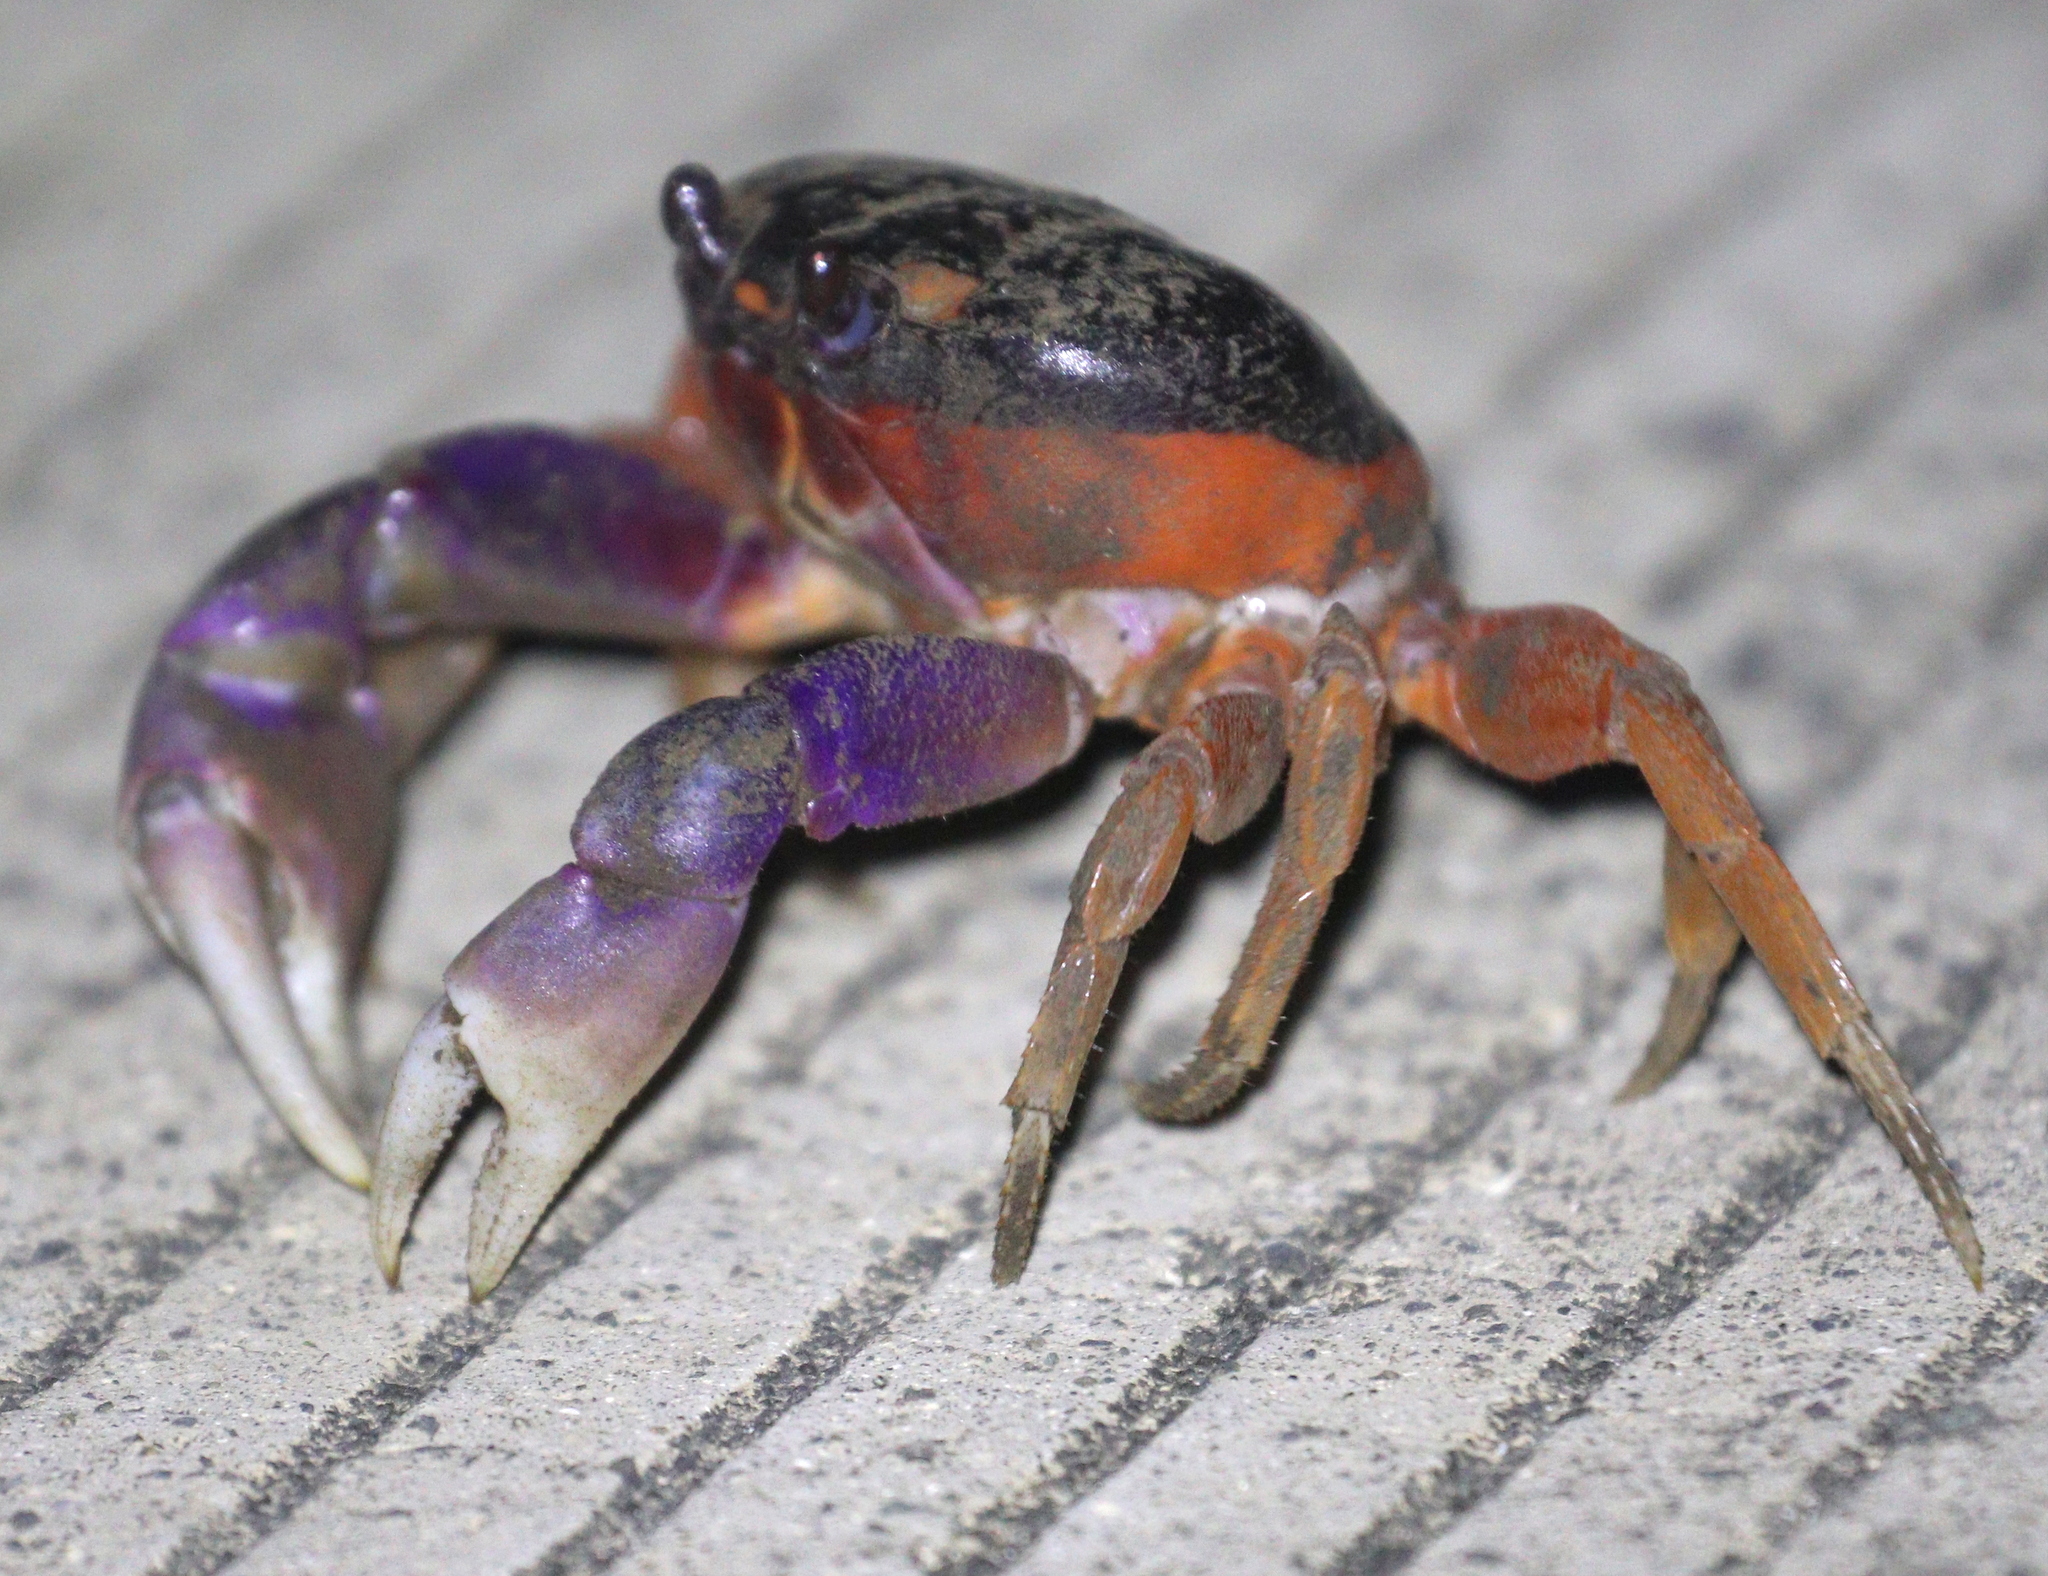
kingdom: Animalia
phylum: Arthropoda
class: Malacostraca
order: Decapoda
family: Gecarcinidae
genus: Gecarcinus
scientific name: Gecarcinus quadratus
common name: Halloween crab
